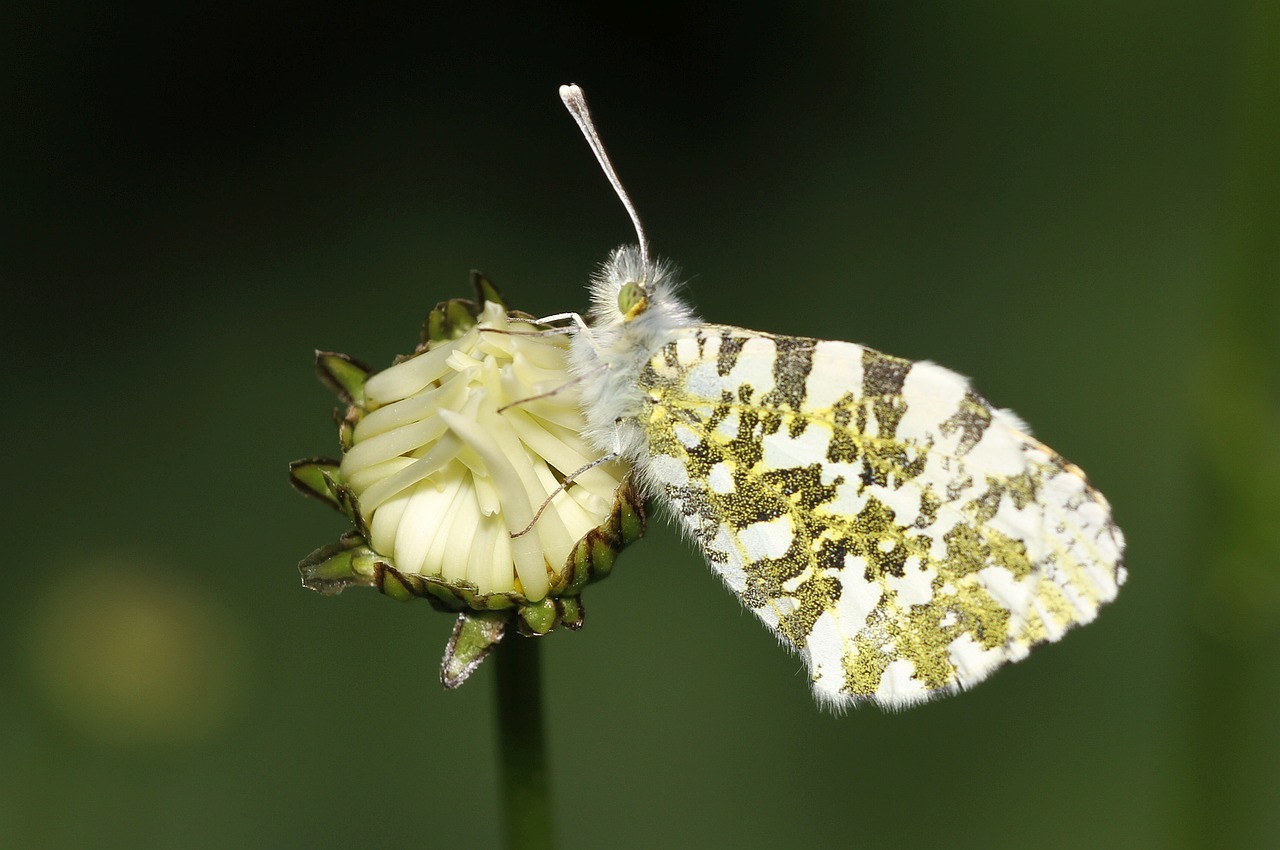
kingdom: Animalia
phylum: Arthropoda
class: Insecta
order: Lepidoptera
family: Pieridae
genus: Anthocharis
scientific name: Anthocharis cardamines
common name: Orange-tip
